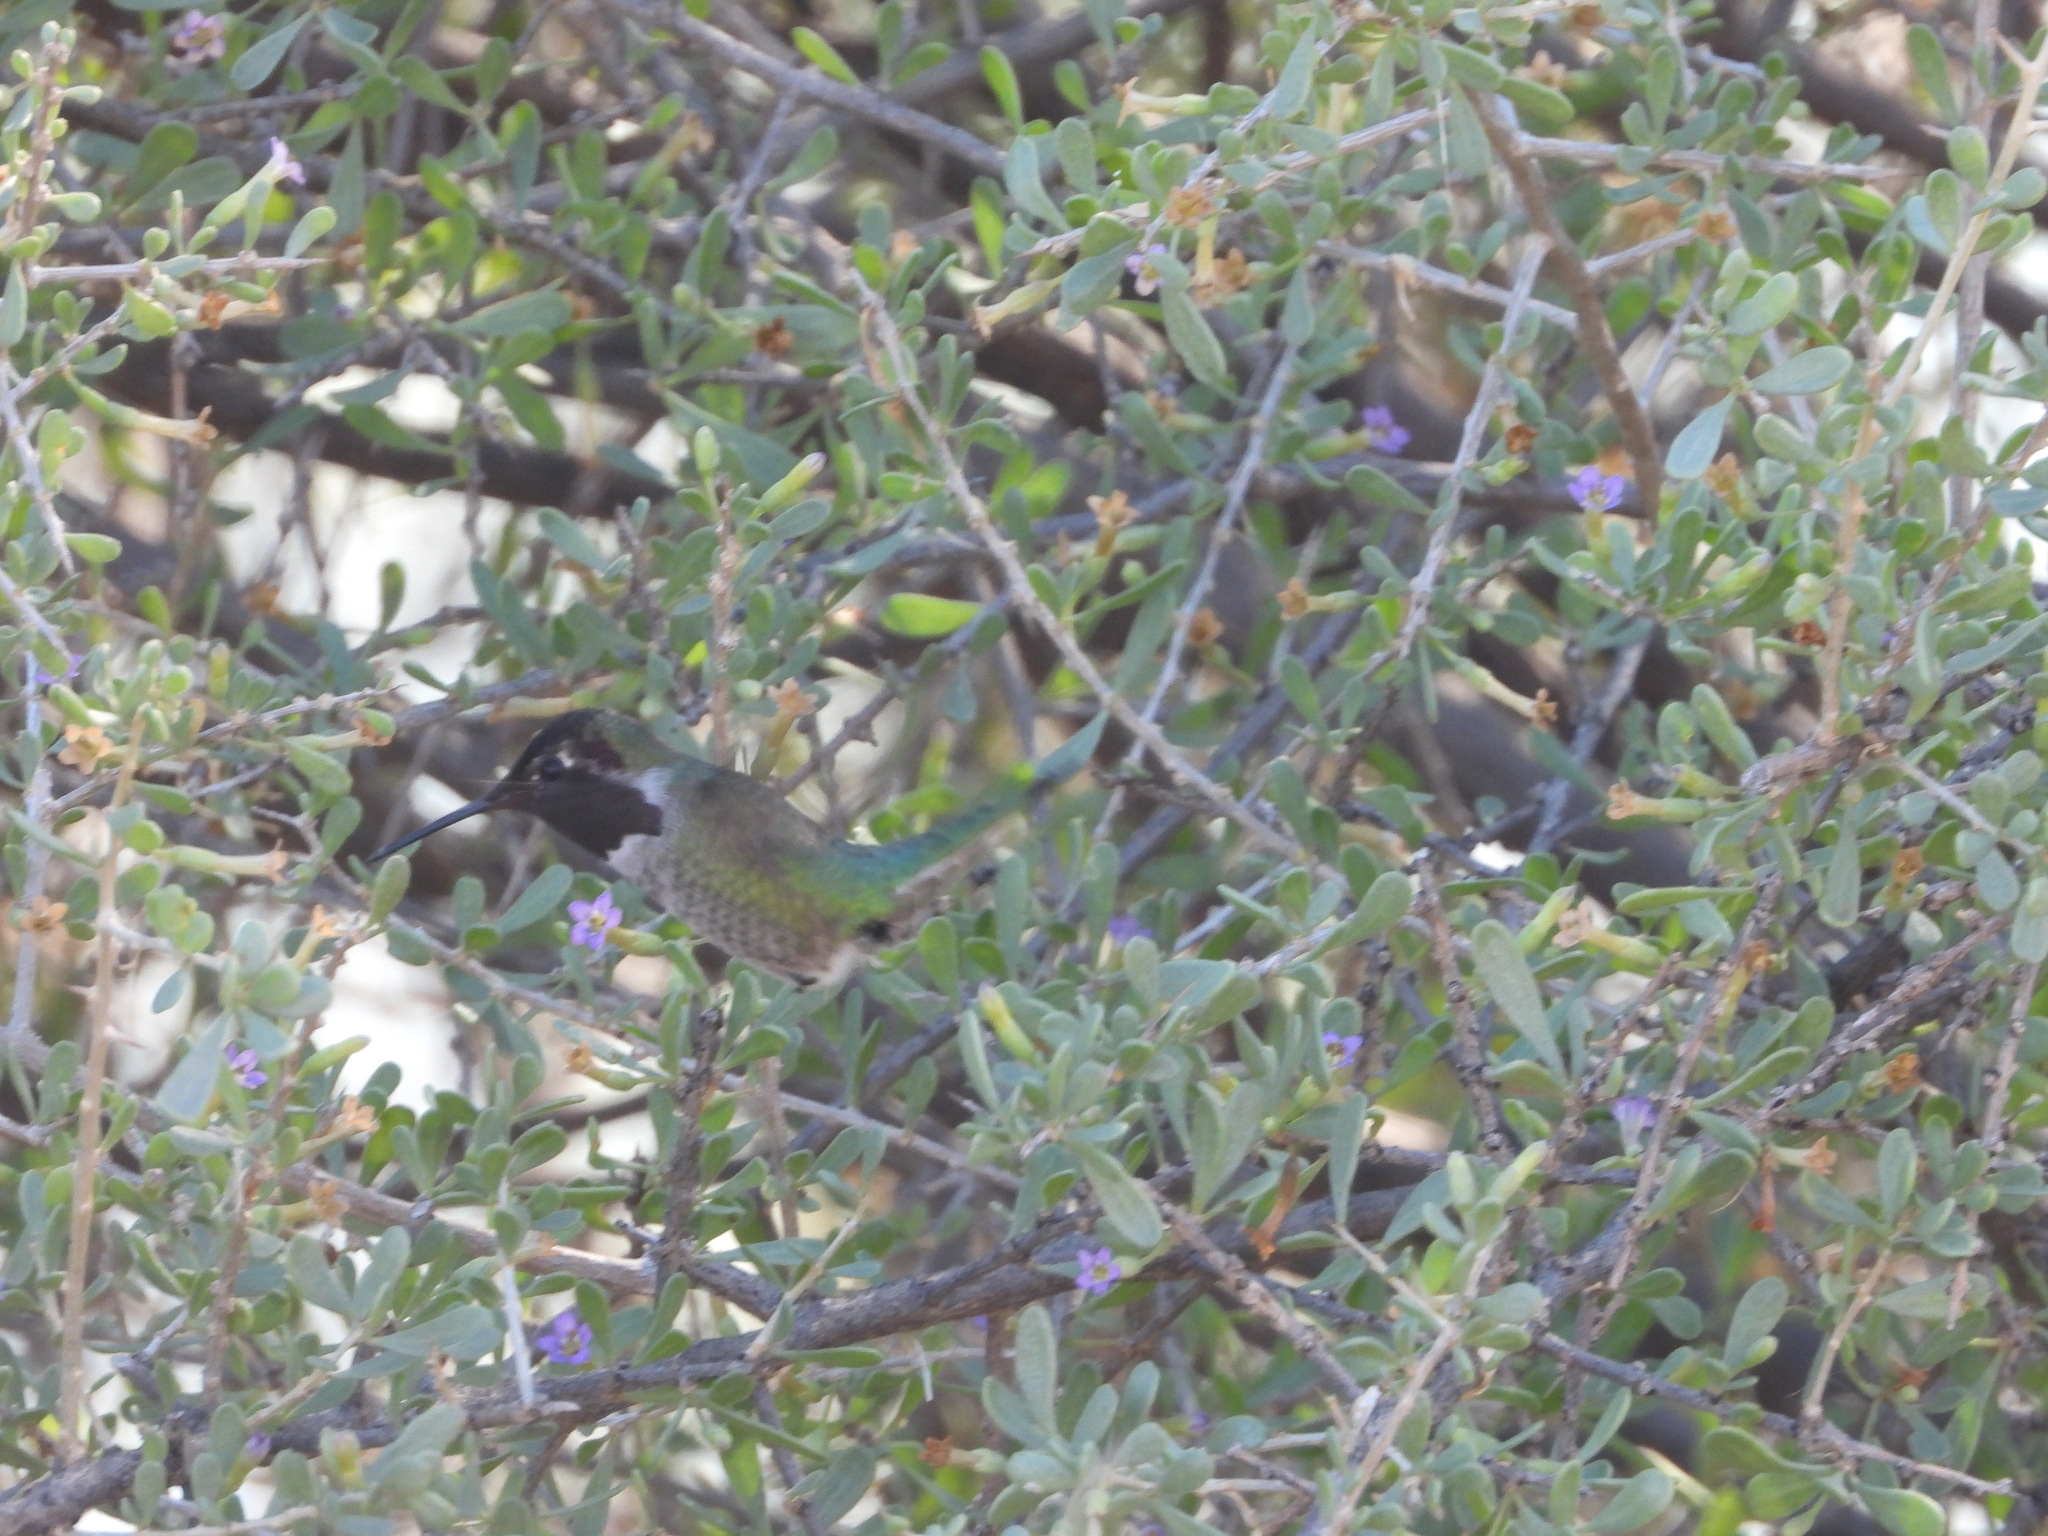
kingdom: Animalia
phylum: Chordata
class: Aves
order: Apodiformes
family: Trochilidae
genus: Calypte
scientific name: Calypte anna
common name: Anna's hummingbird
